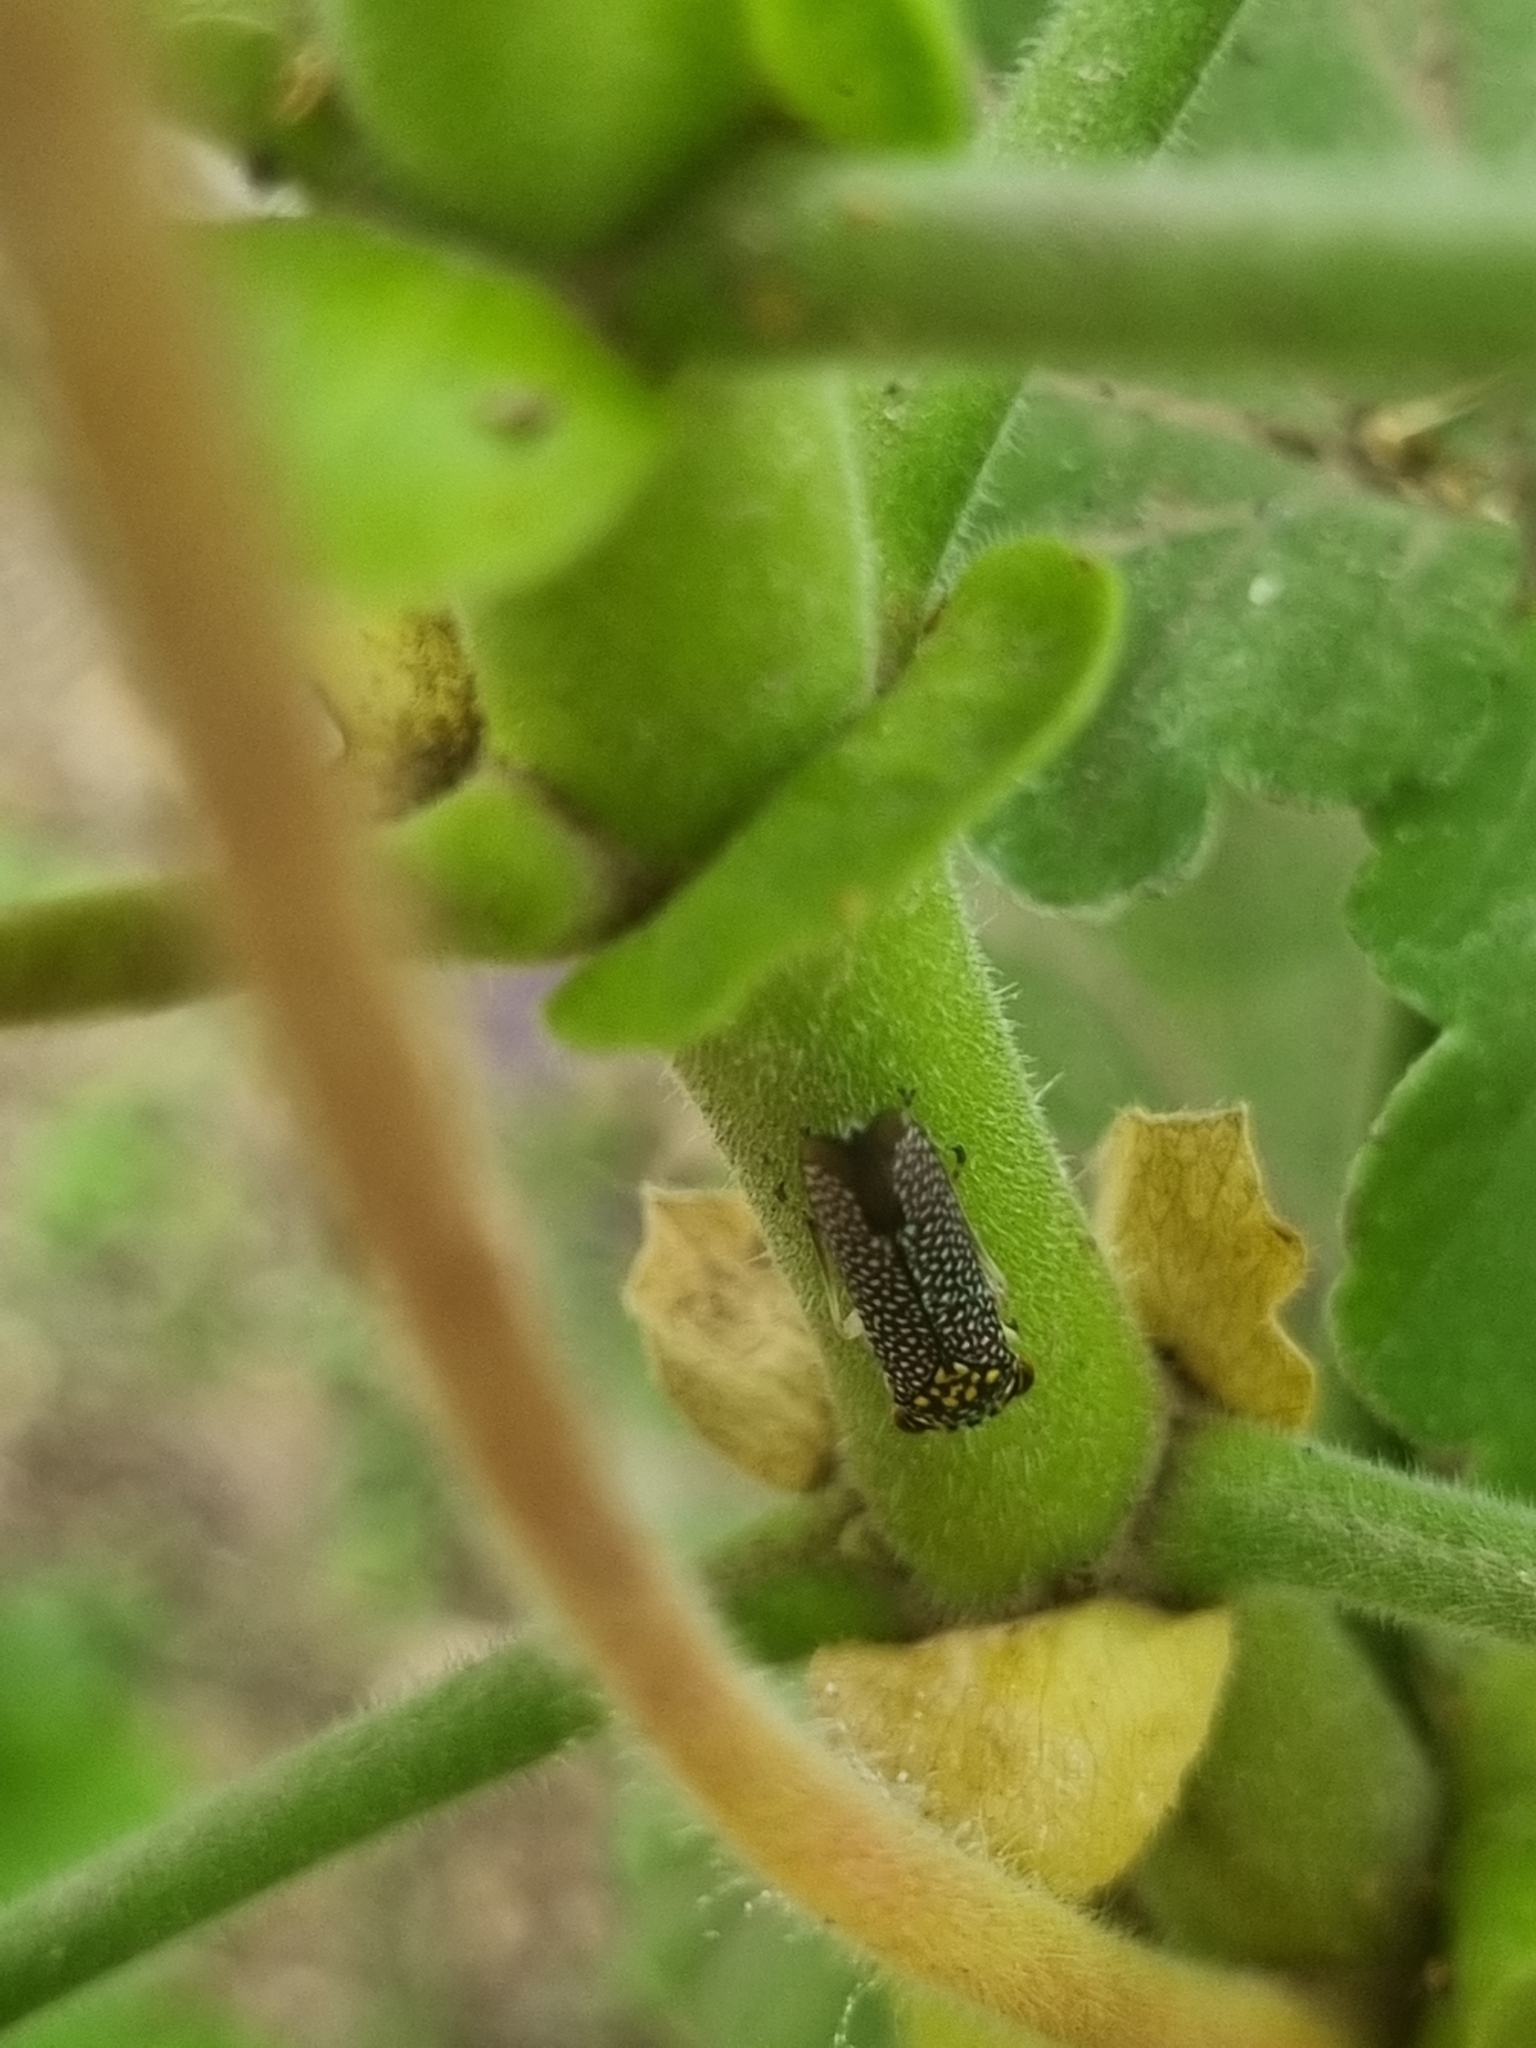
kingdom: Animalia
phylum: Arthropoda
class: Insecta
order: Hemiptera
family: Cicadellidae
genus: Molomea
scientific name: Molomea lineiceps
